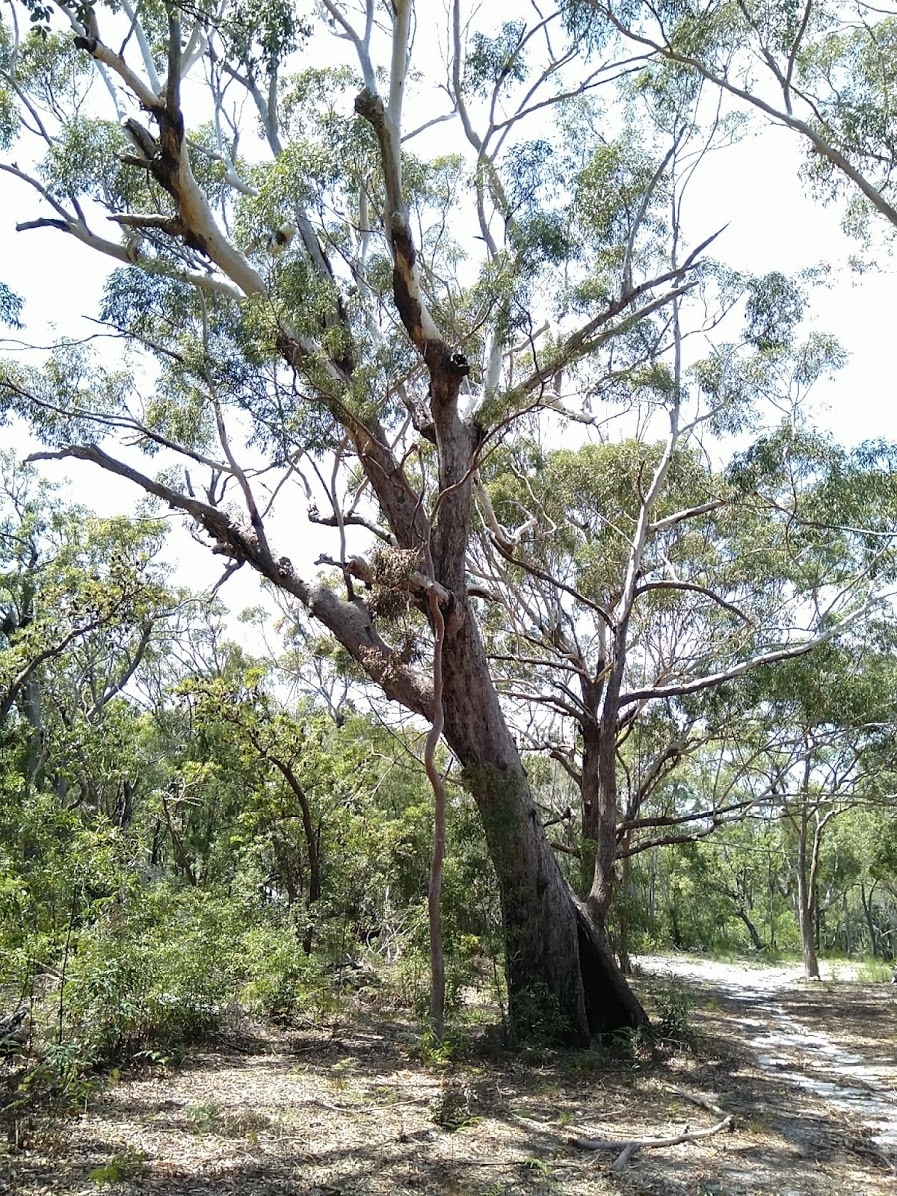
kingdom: Plantae
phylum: Tracheophyta
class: Magnoliopsida
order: Myrtales
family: Myrtaceae
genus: Eucalyptus
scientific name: Eucalyptus pilularis
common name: Blackbutt
